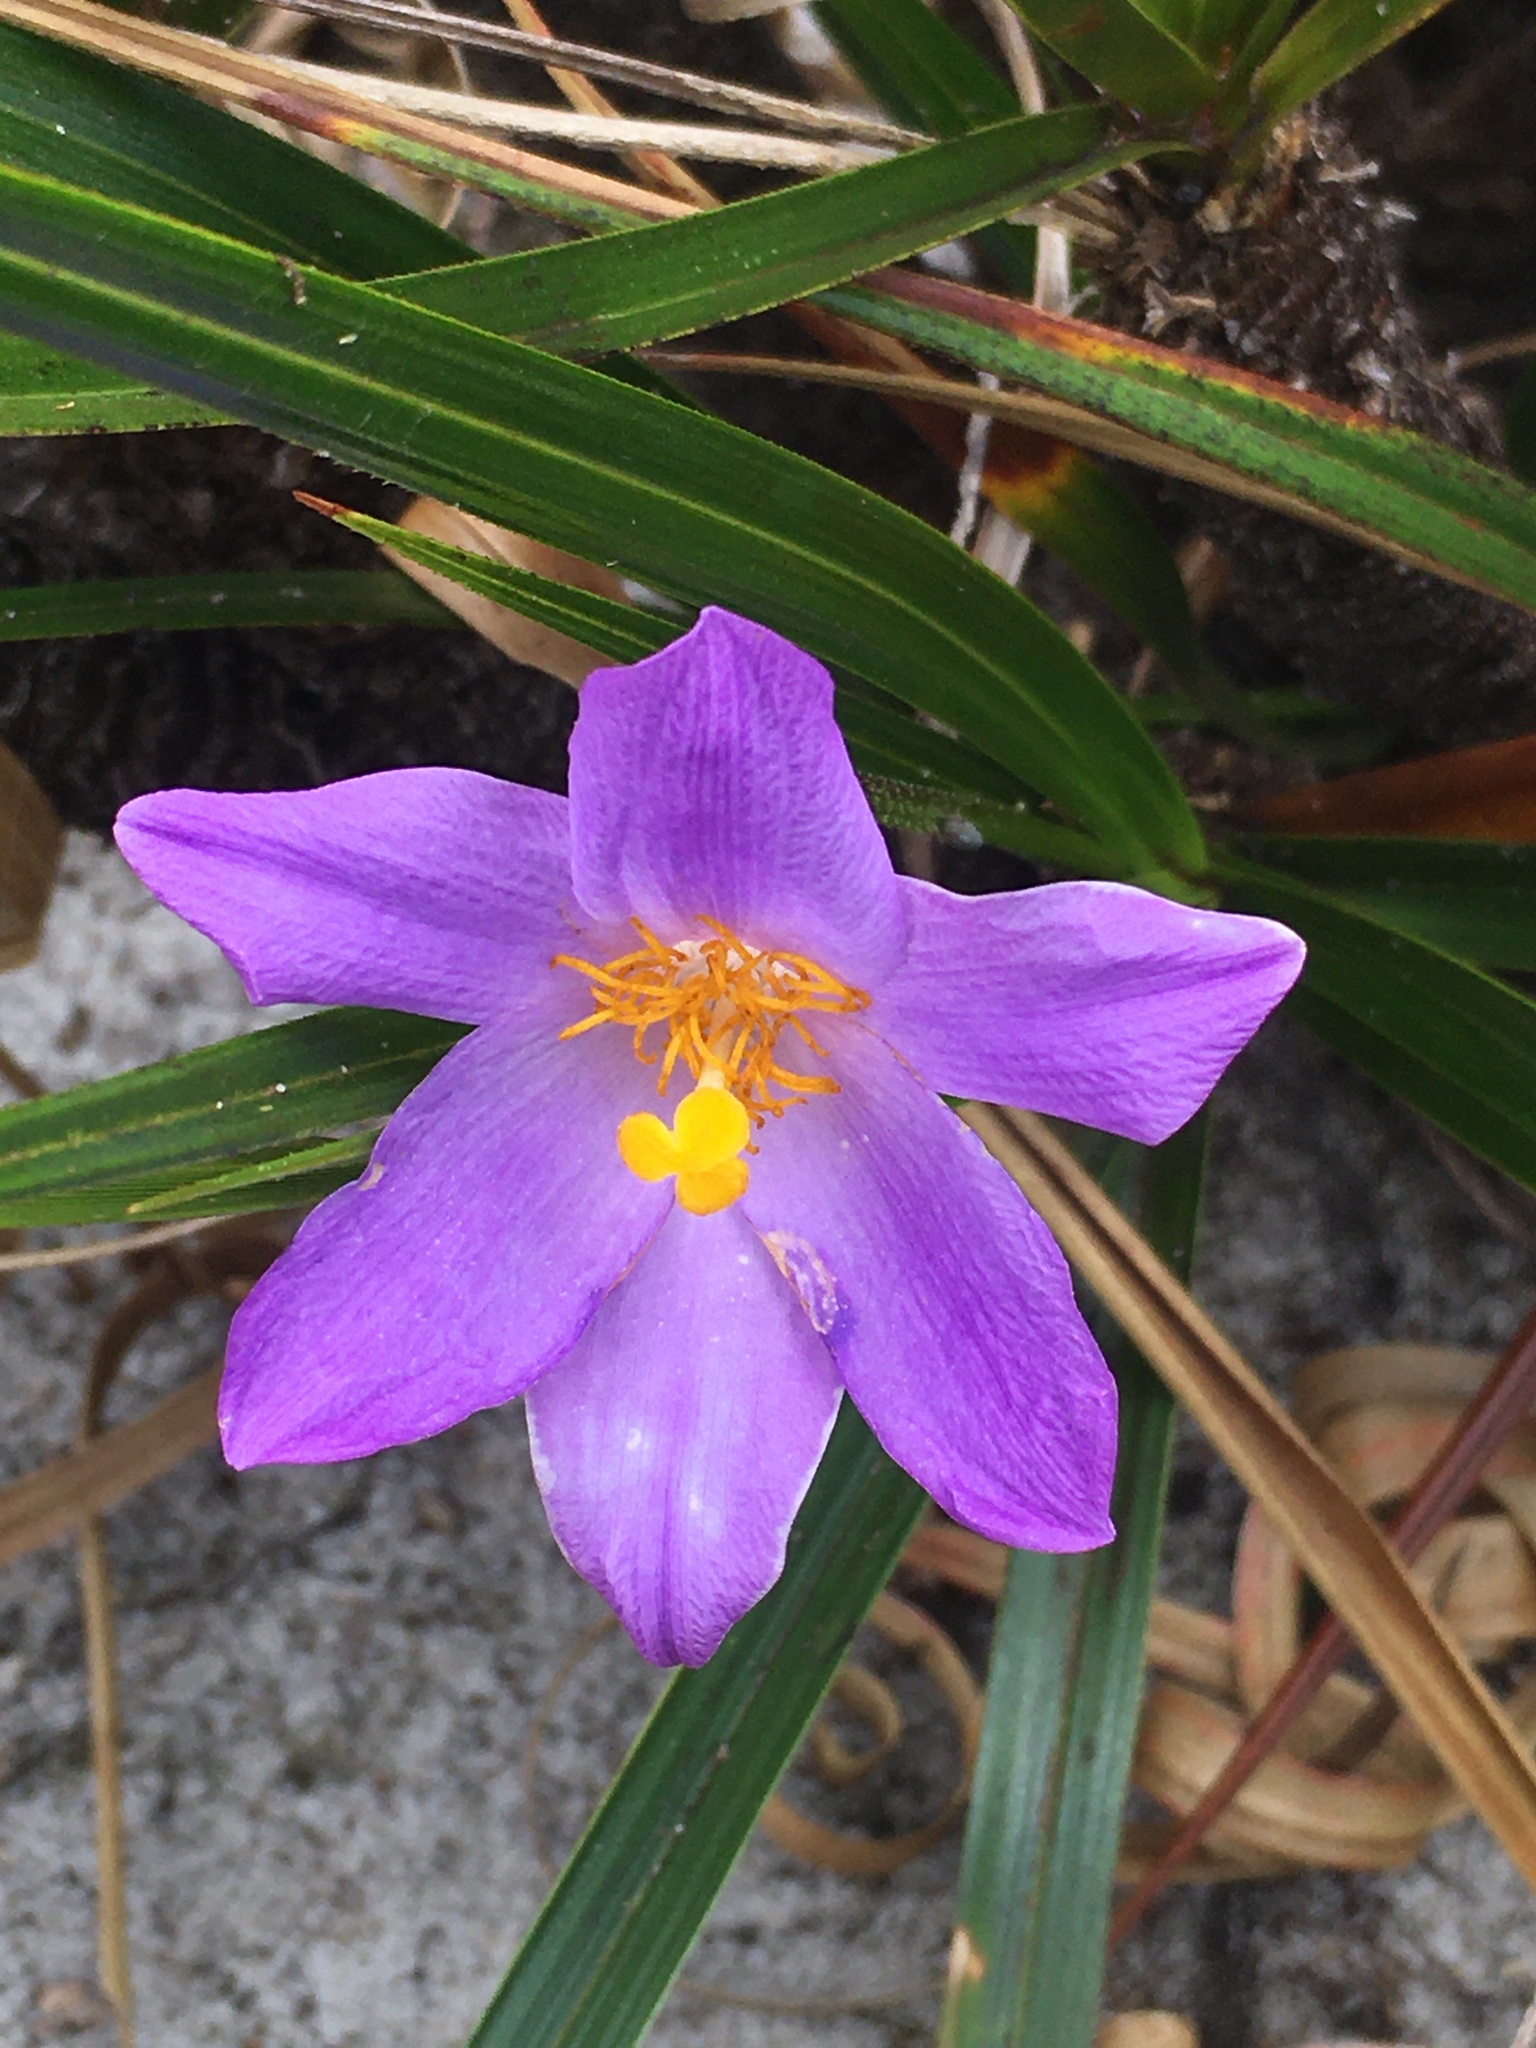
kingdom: Plantae
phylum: Tracheophyta
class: Liliopsida
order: Pandanales
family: Velloziaceae
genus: Vellozia
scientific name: Vellozia stenocarpa
